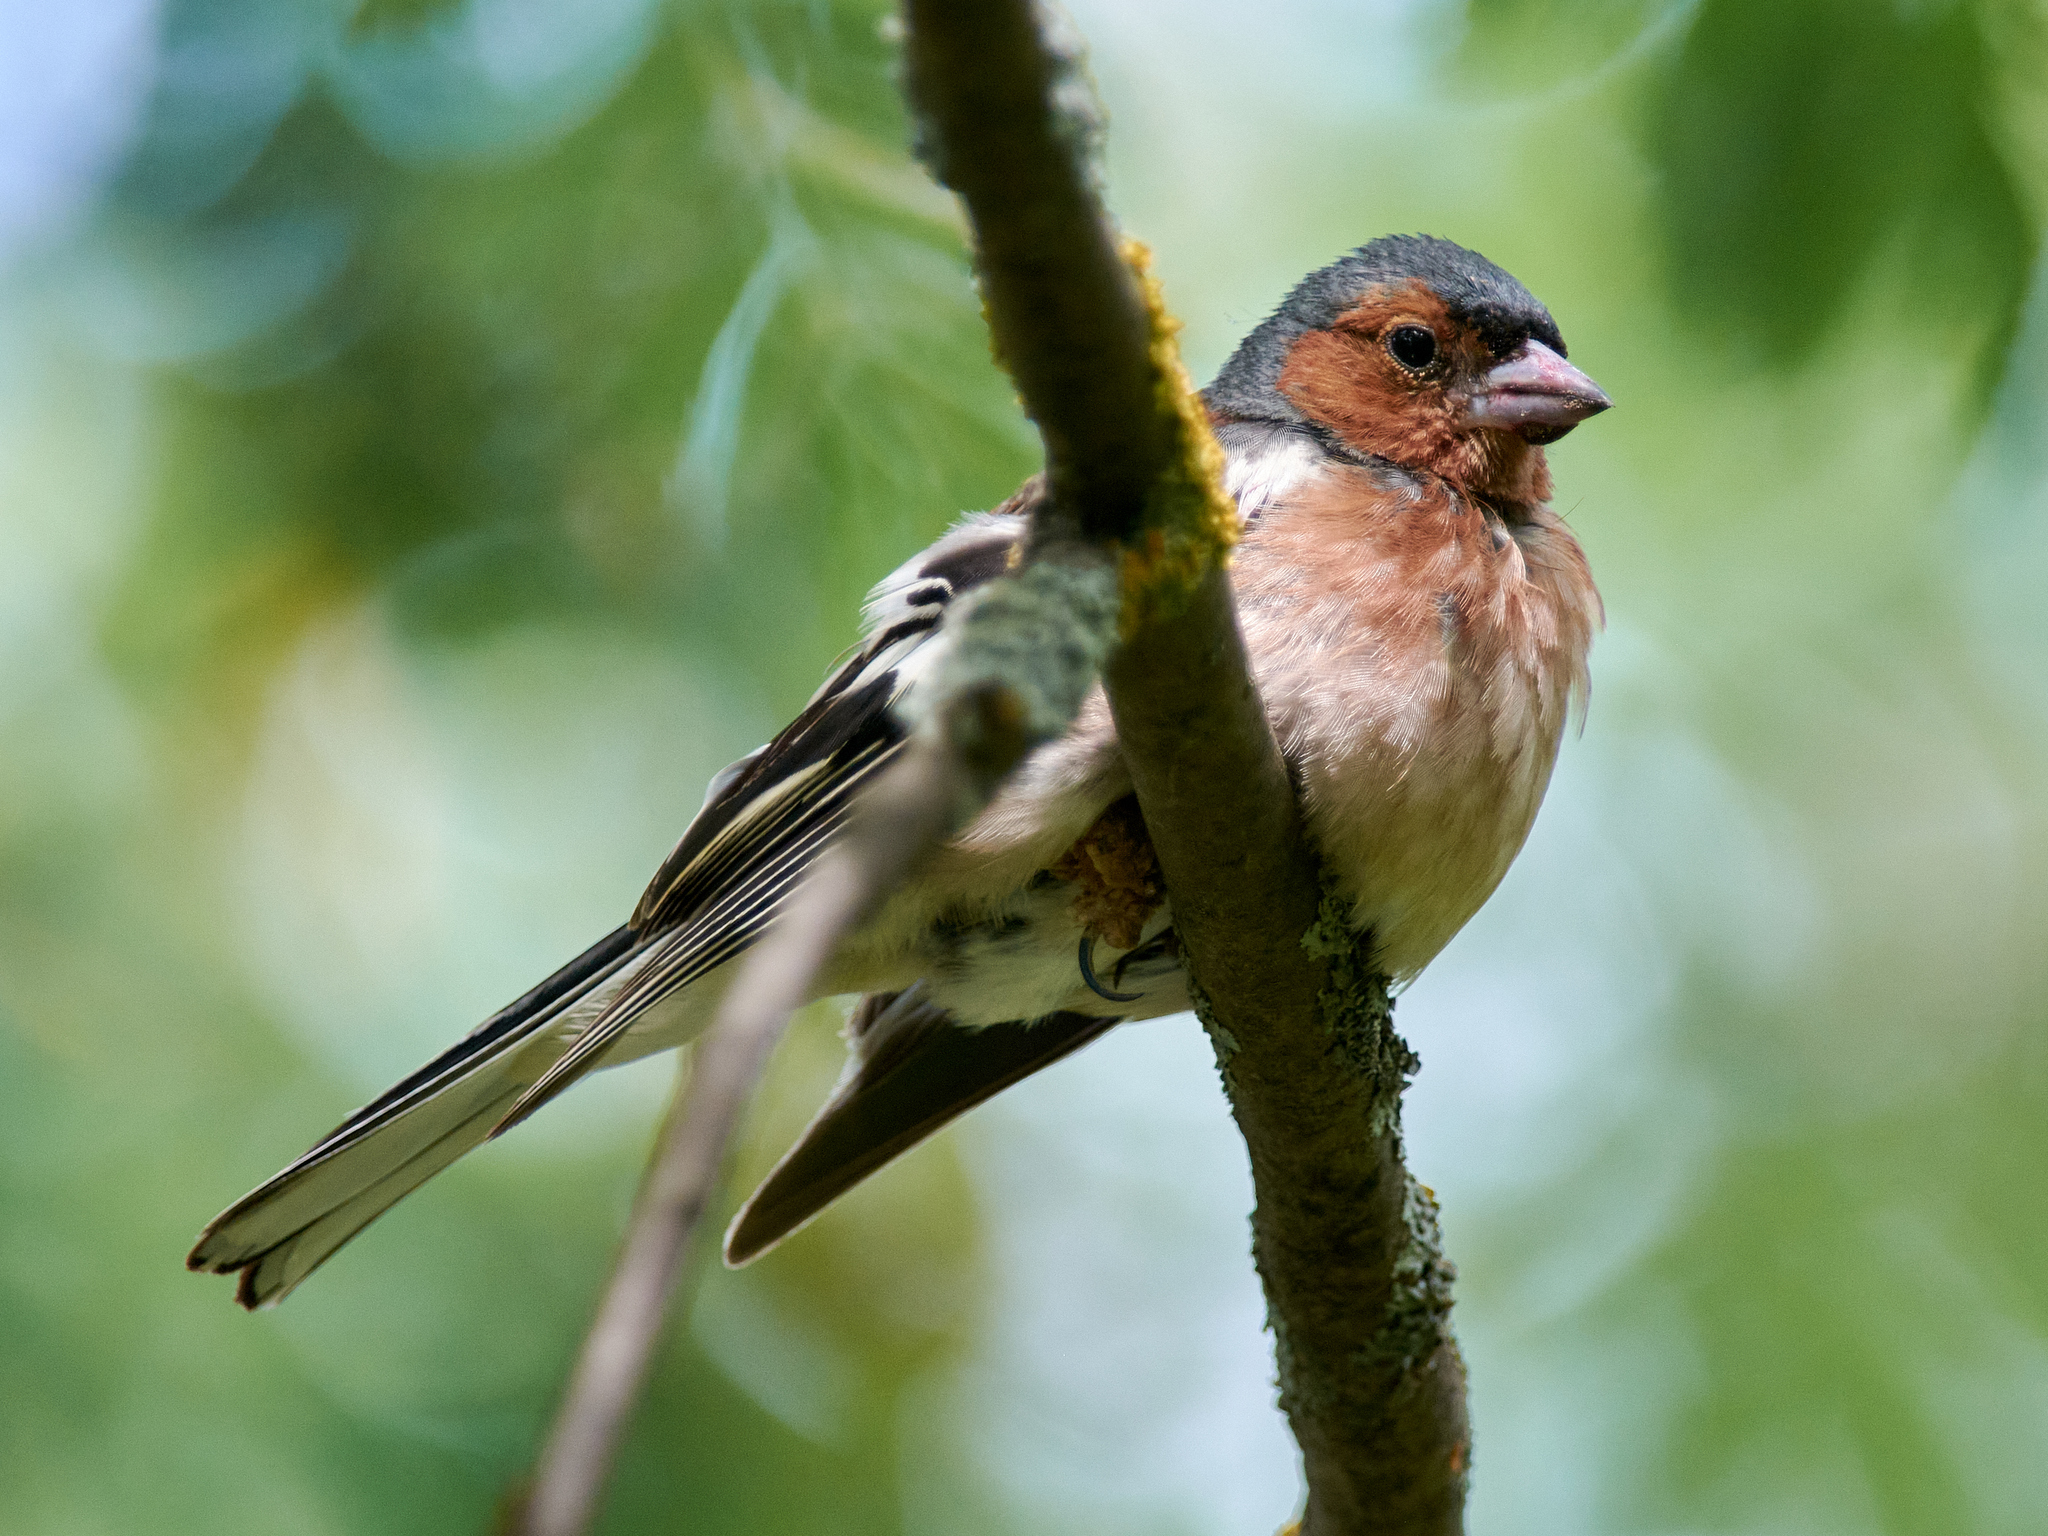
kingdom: Animalia
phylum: Chordata
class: Aves
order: Passeriformes
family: Fringillidae
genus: Fringilla
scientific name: Fringilla coelebs
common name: Common chaffinch
